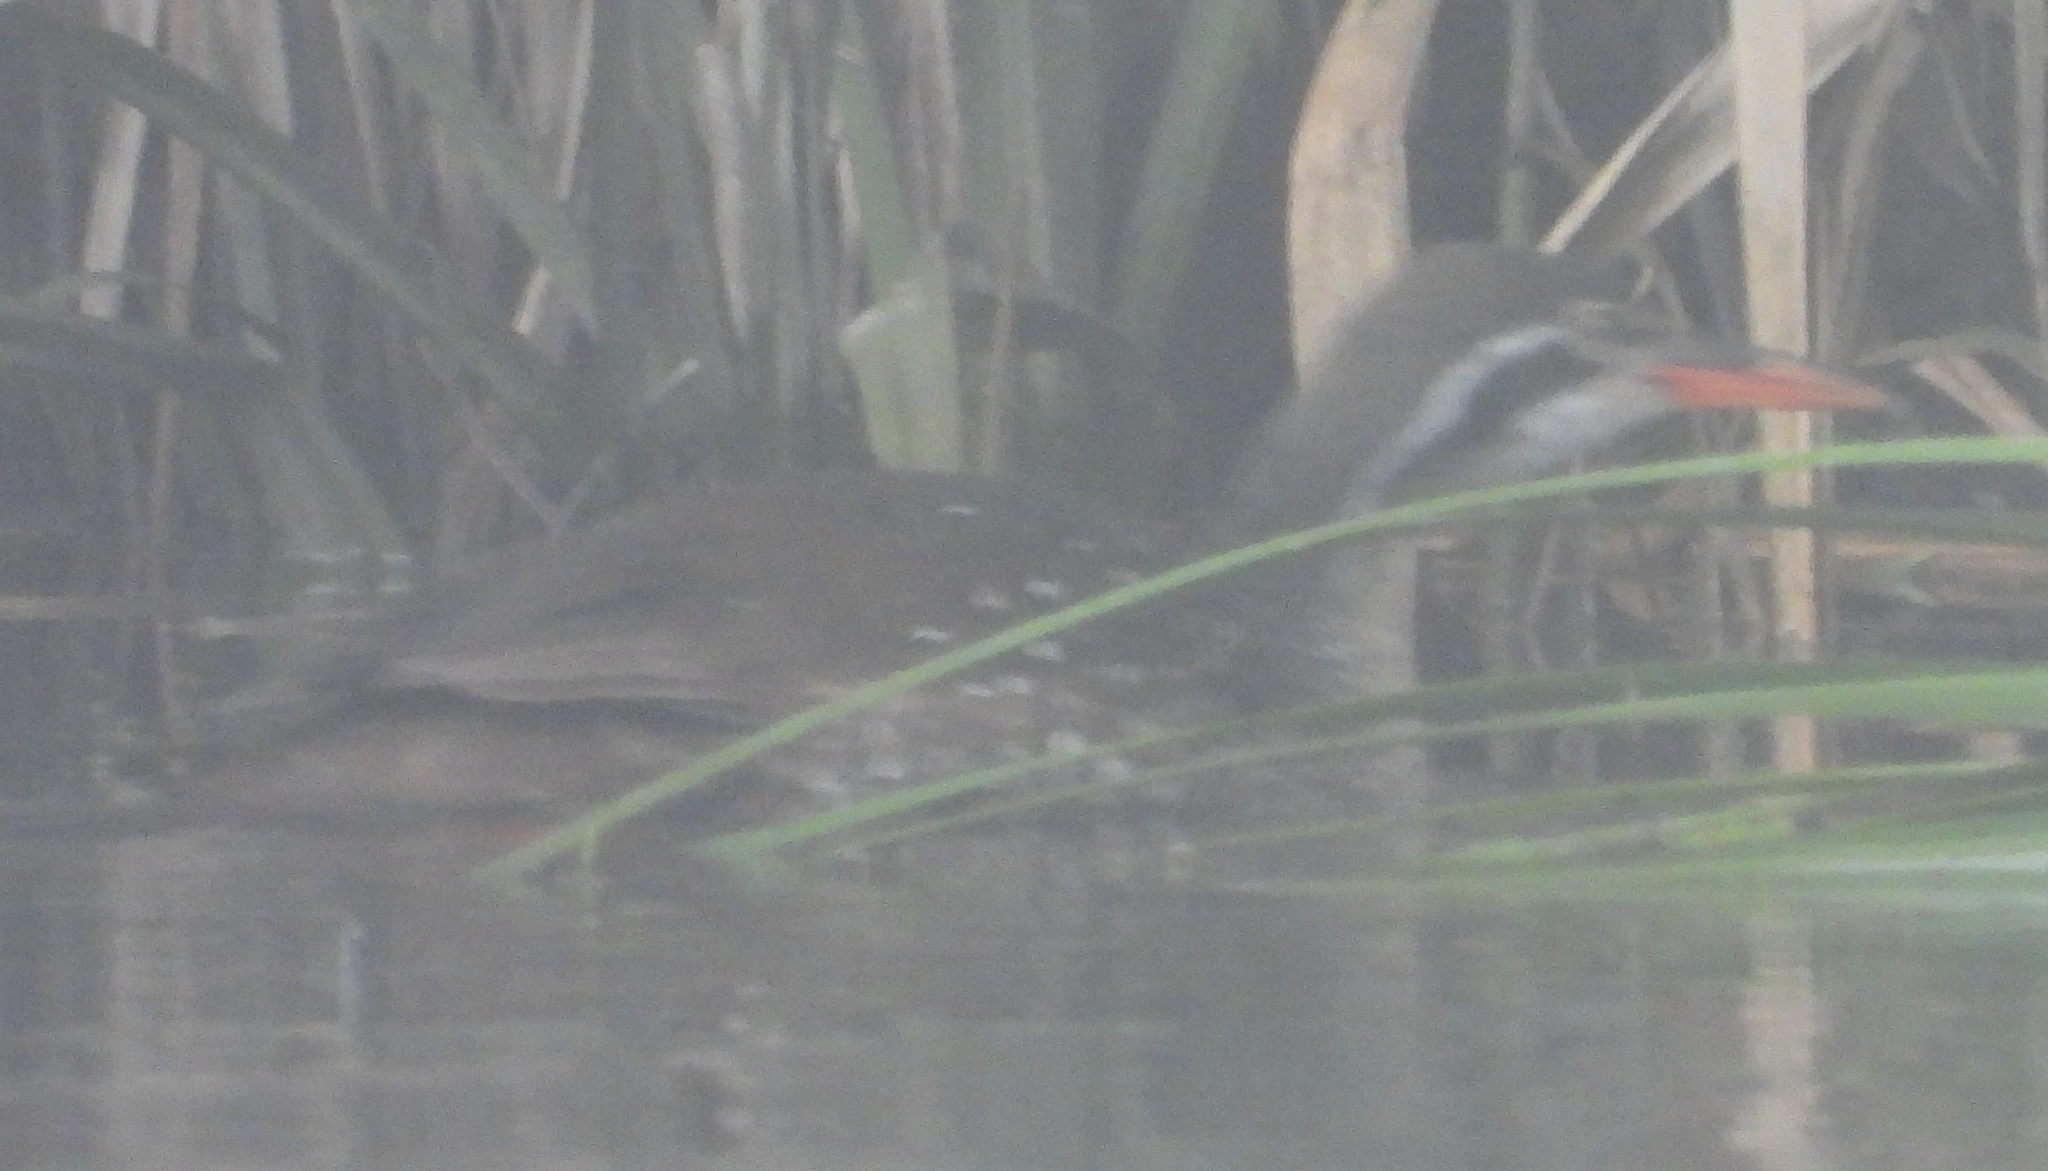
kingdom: Animalia
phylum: Chordata
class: Aves
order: Gruiformes
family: Heliornithidae
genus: Podica
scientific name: Podica senegalensis
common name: African finfoot
